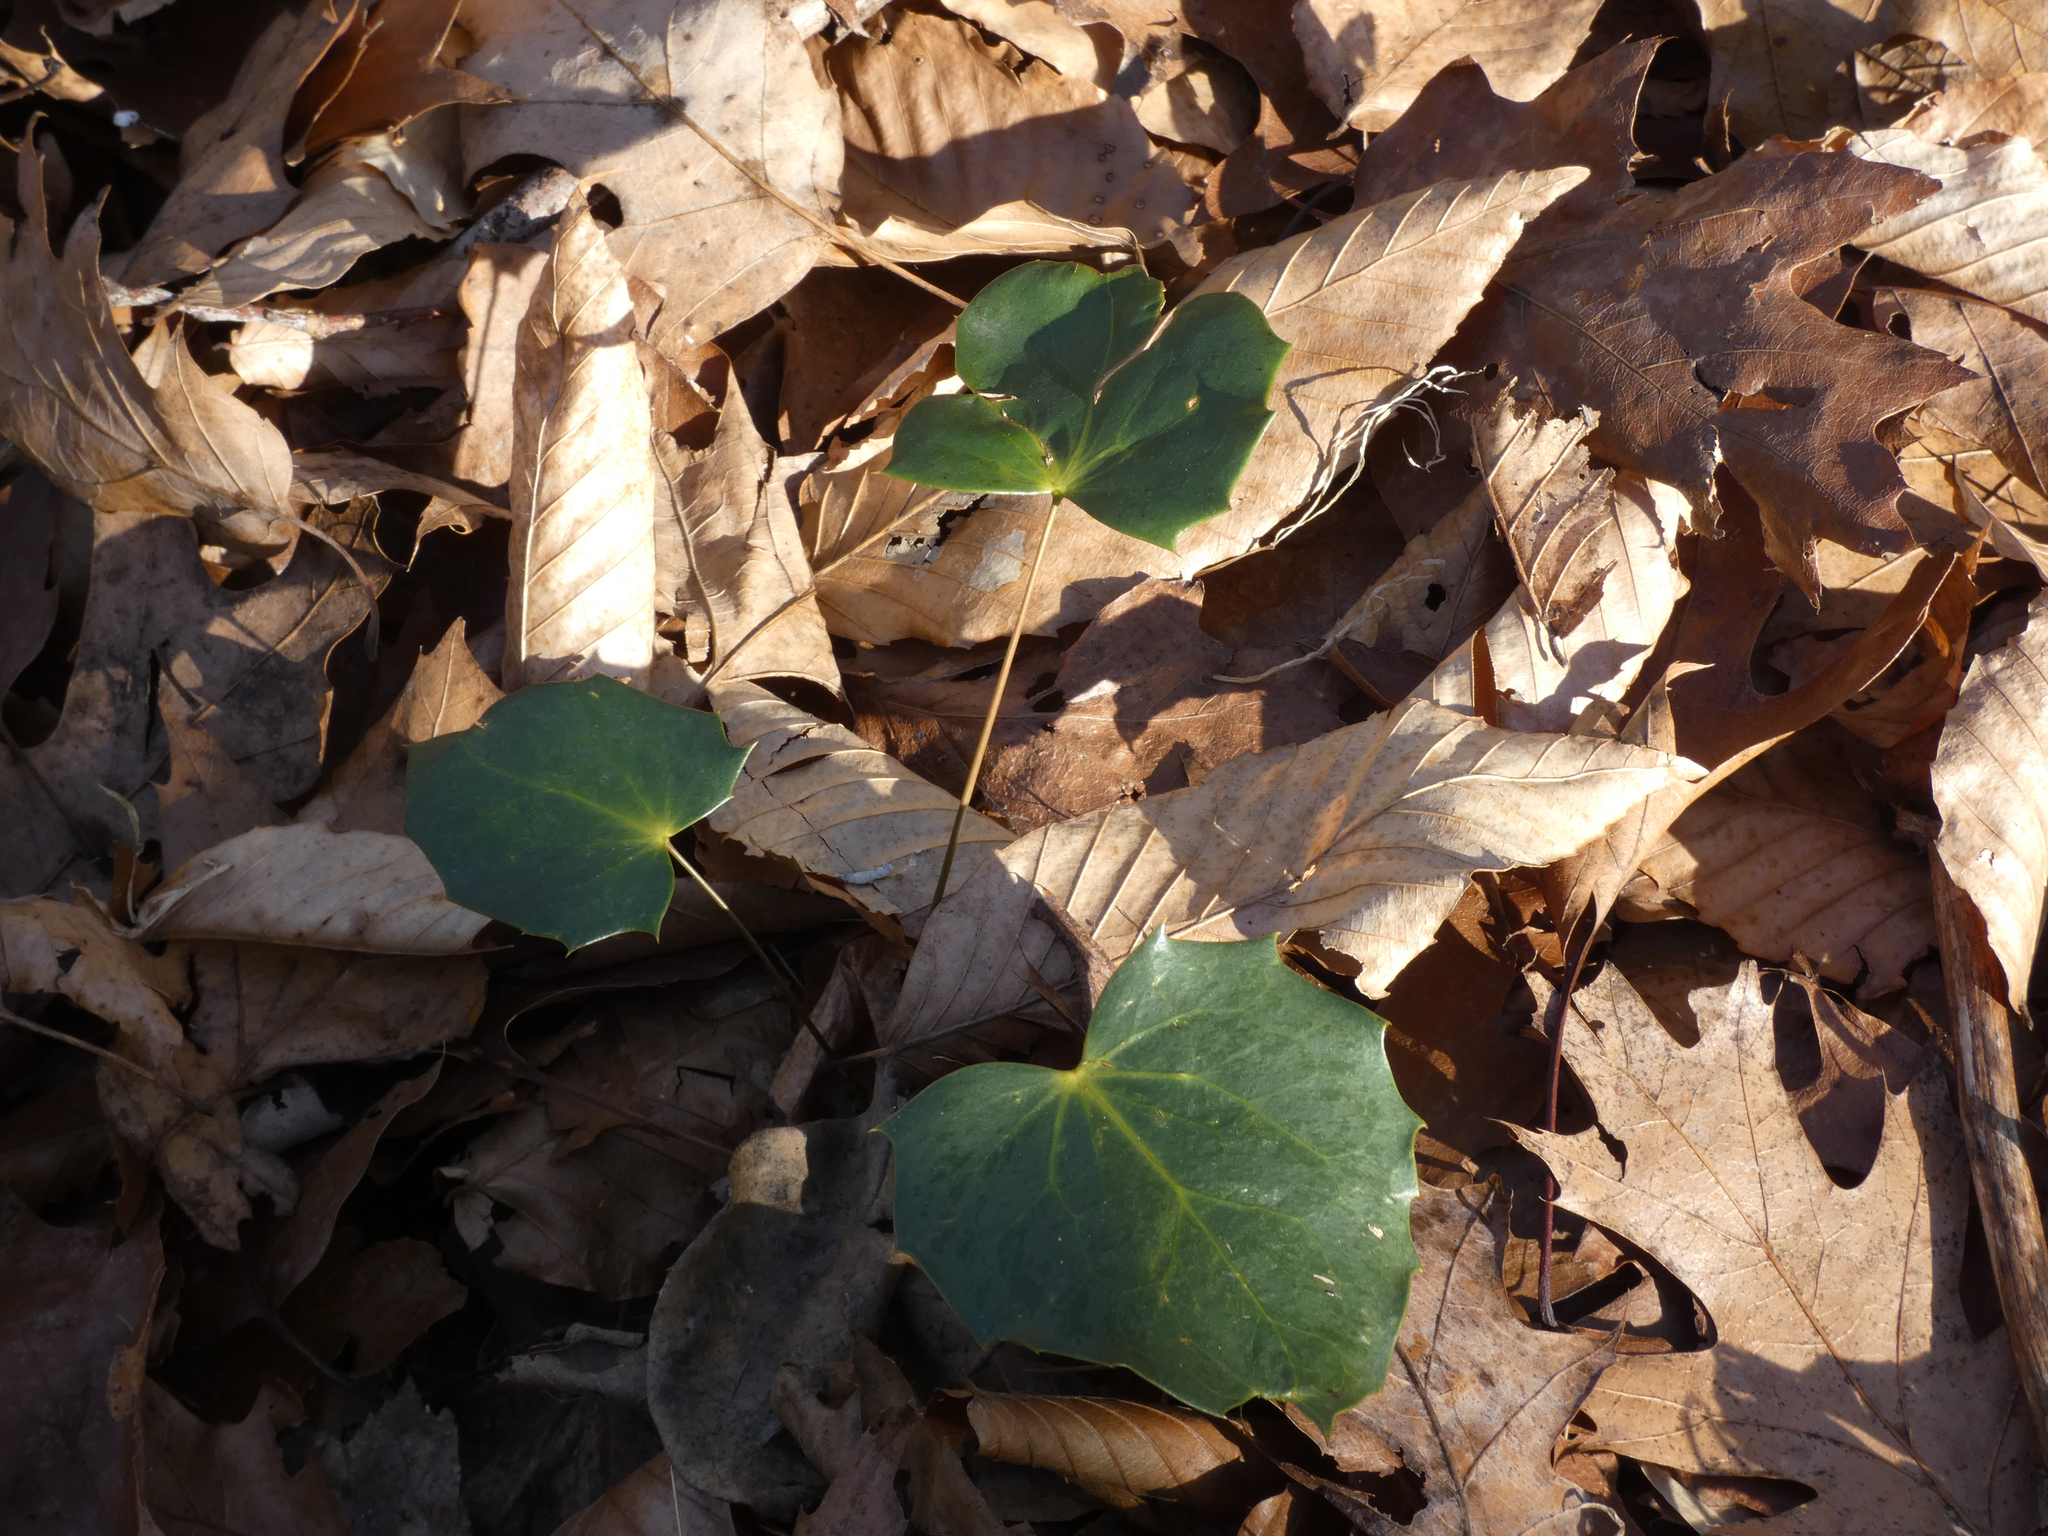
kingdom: Plantae
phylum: Tracheophyta
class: Magnoliopsida
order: Ranunculales
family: Berberidaceae
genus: Mahonia
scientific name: Mahonia bealei
